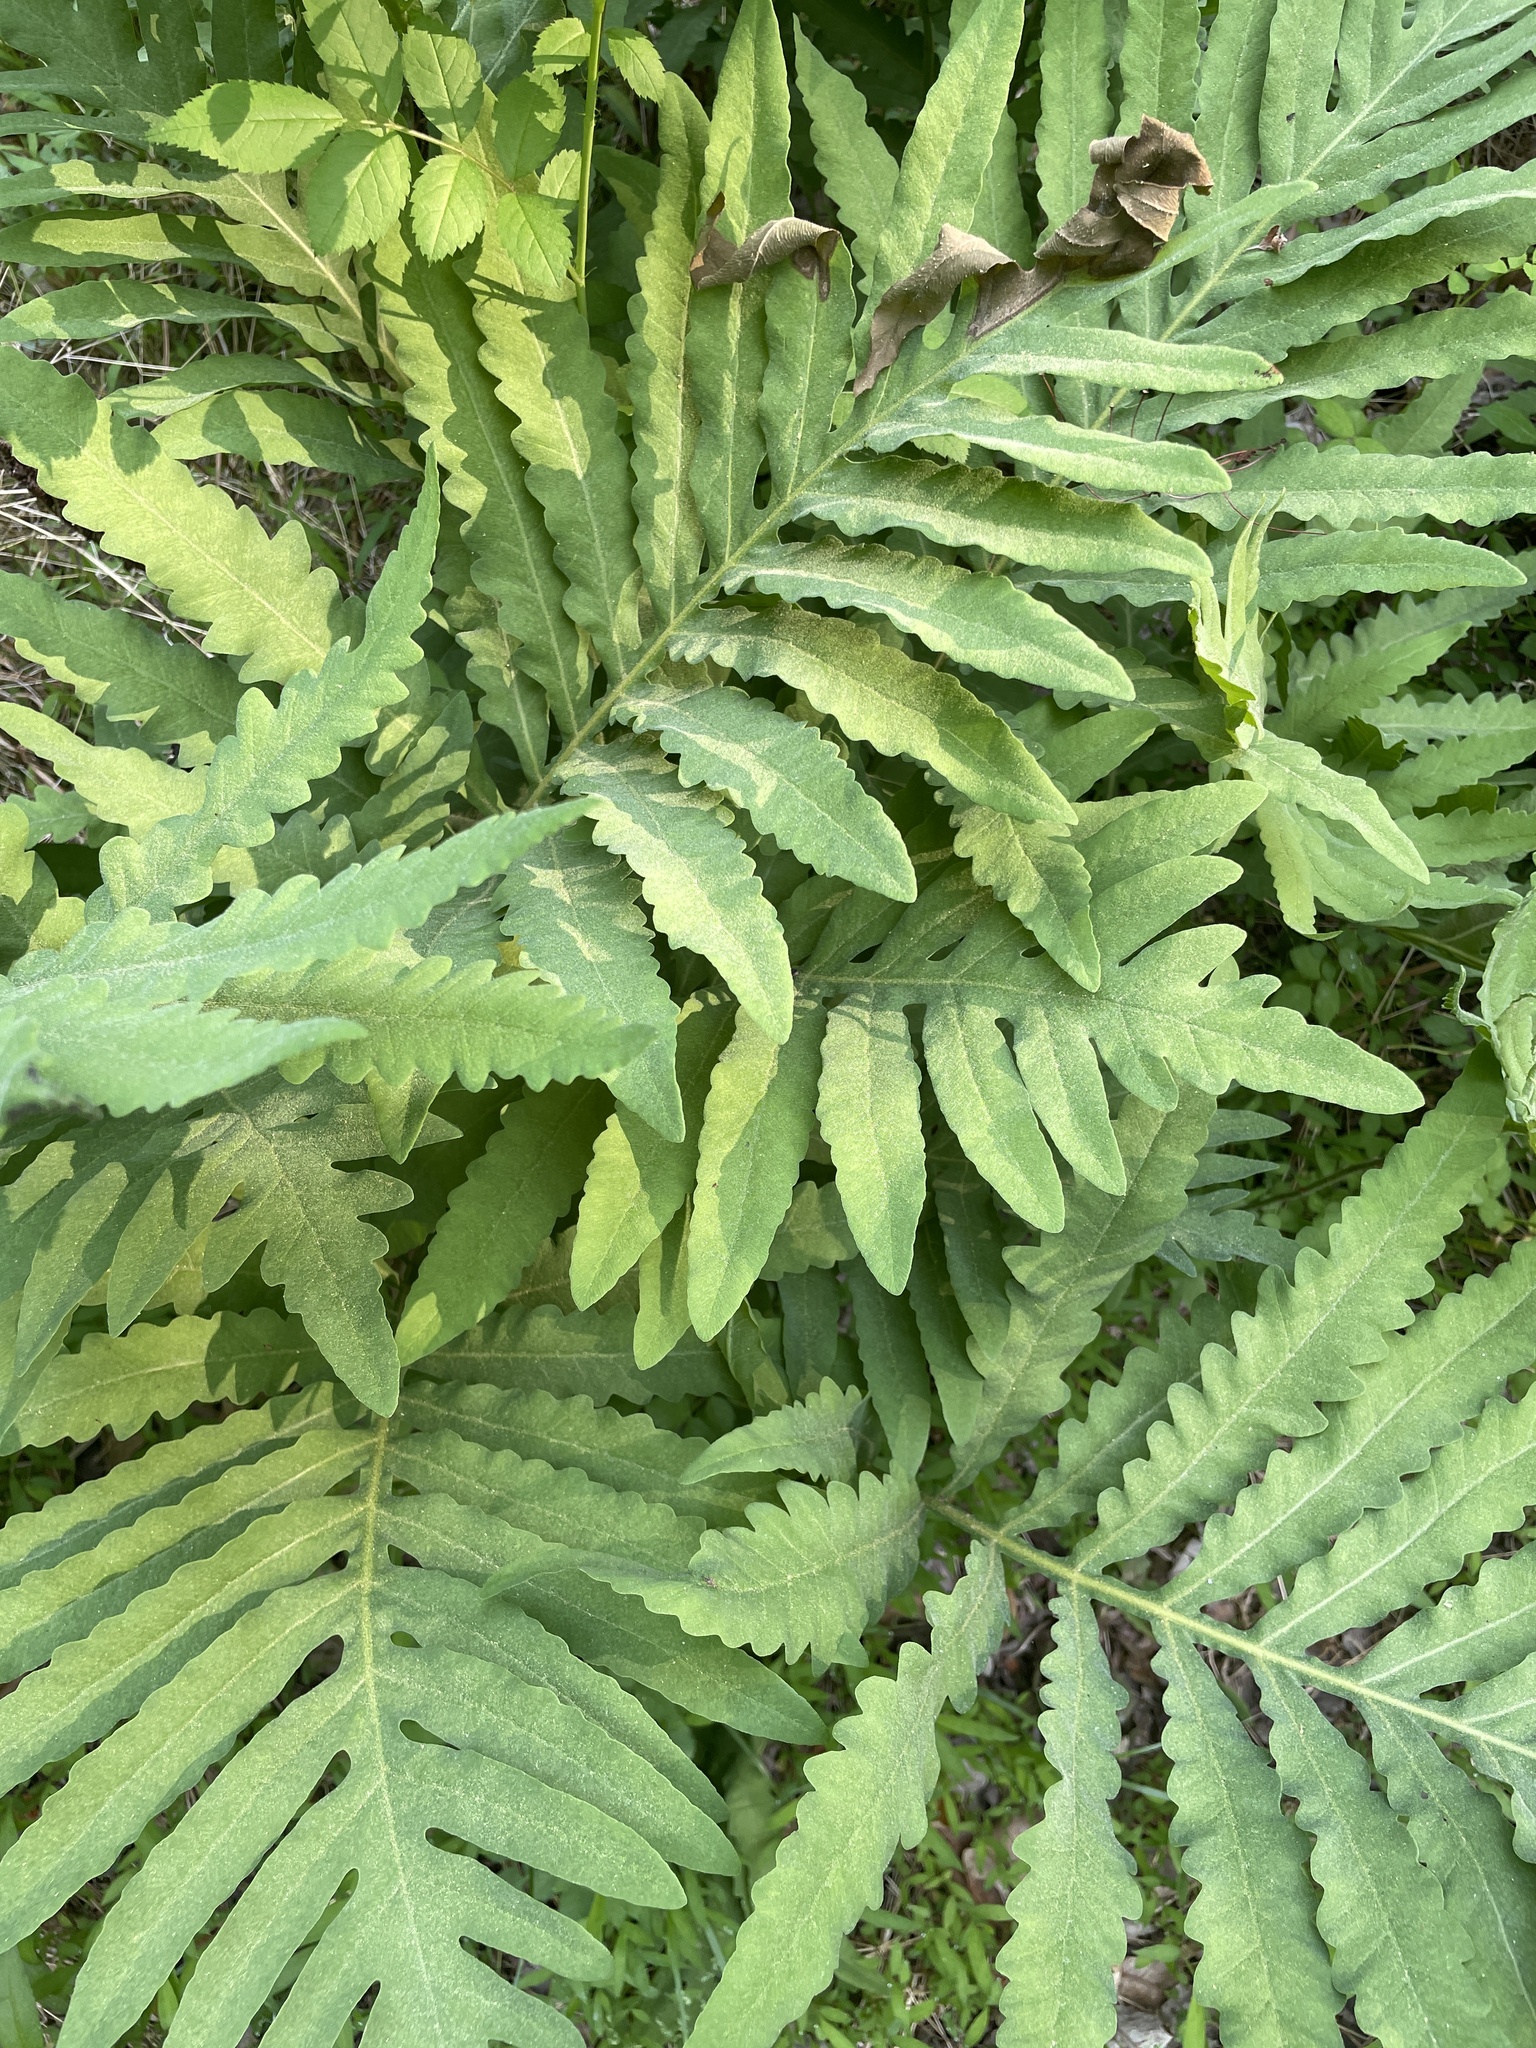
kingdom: Plantae
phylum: Tracheophyta
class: Polypodiopsida
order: Polypodiales
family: Onocleaceae
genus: Onoclea
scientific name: Onoclea sensibilis
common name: Sensitive fern
